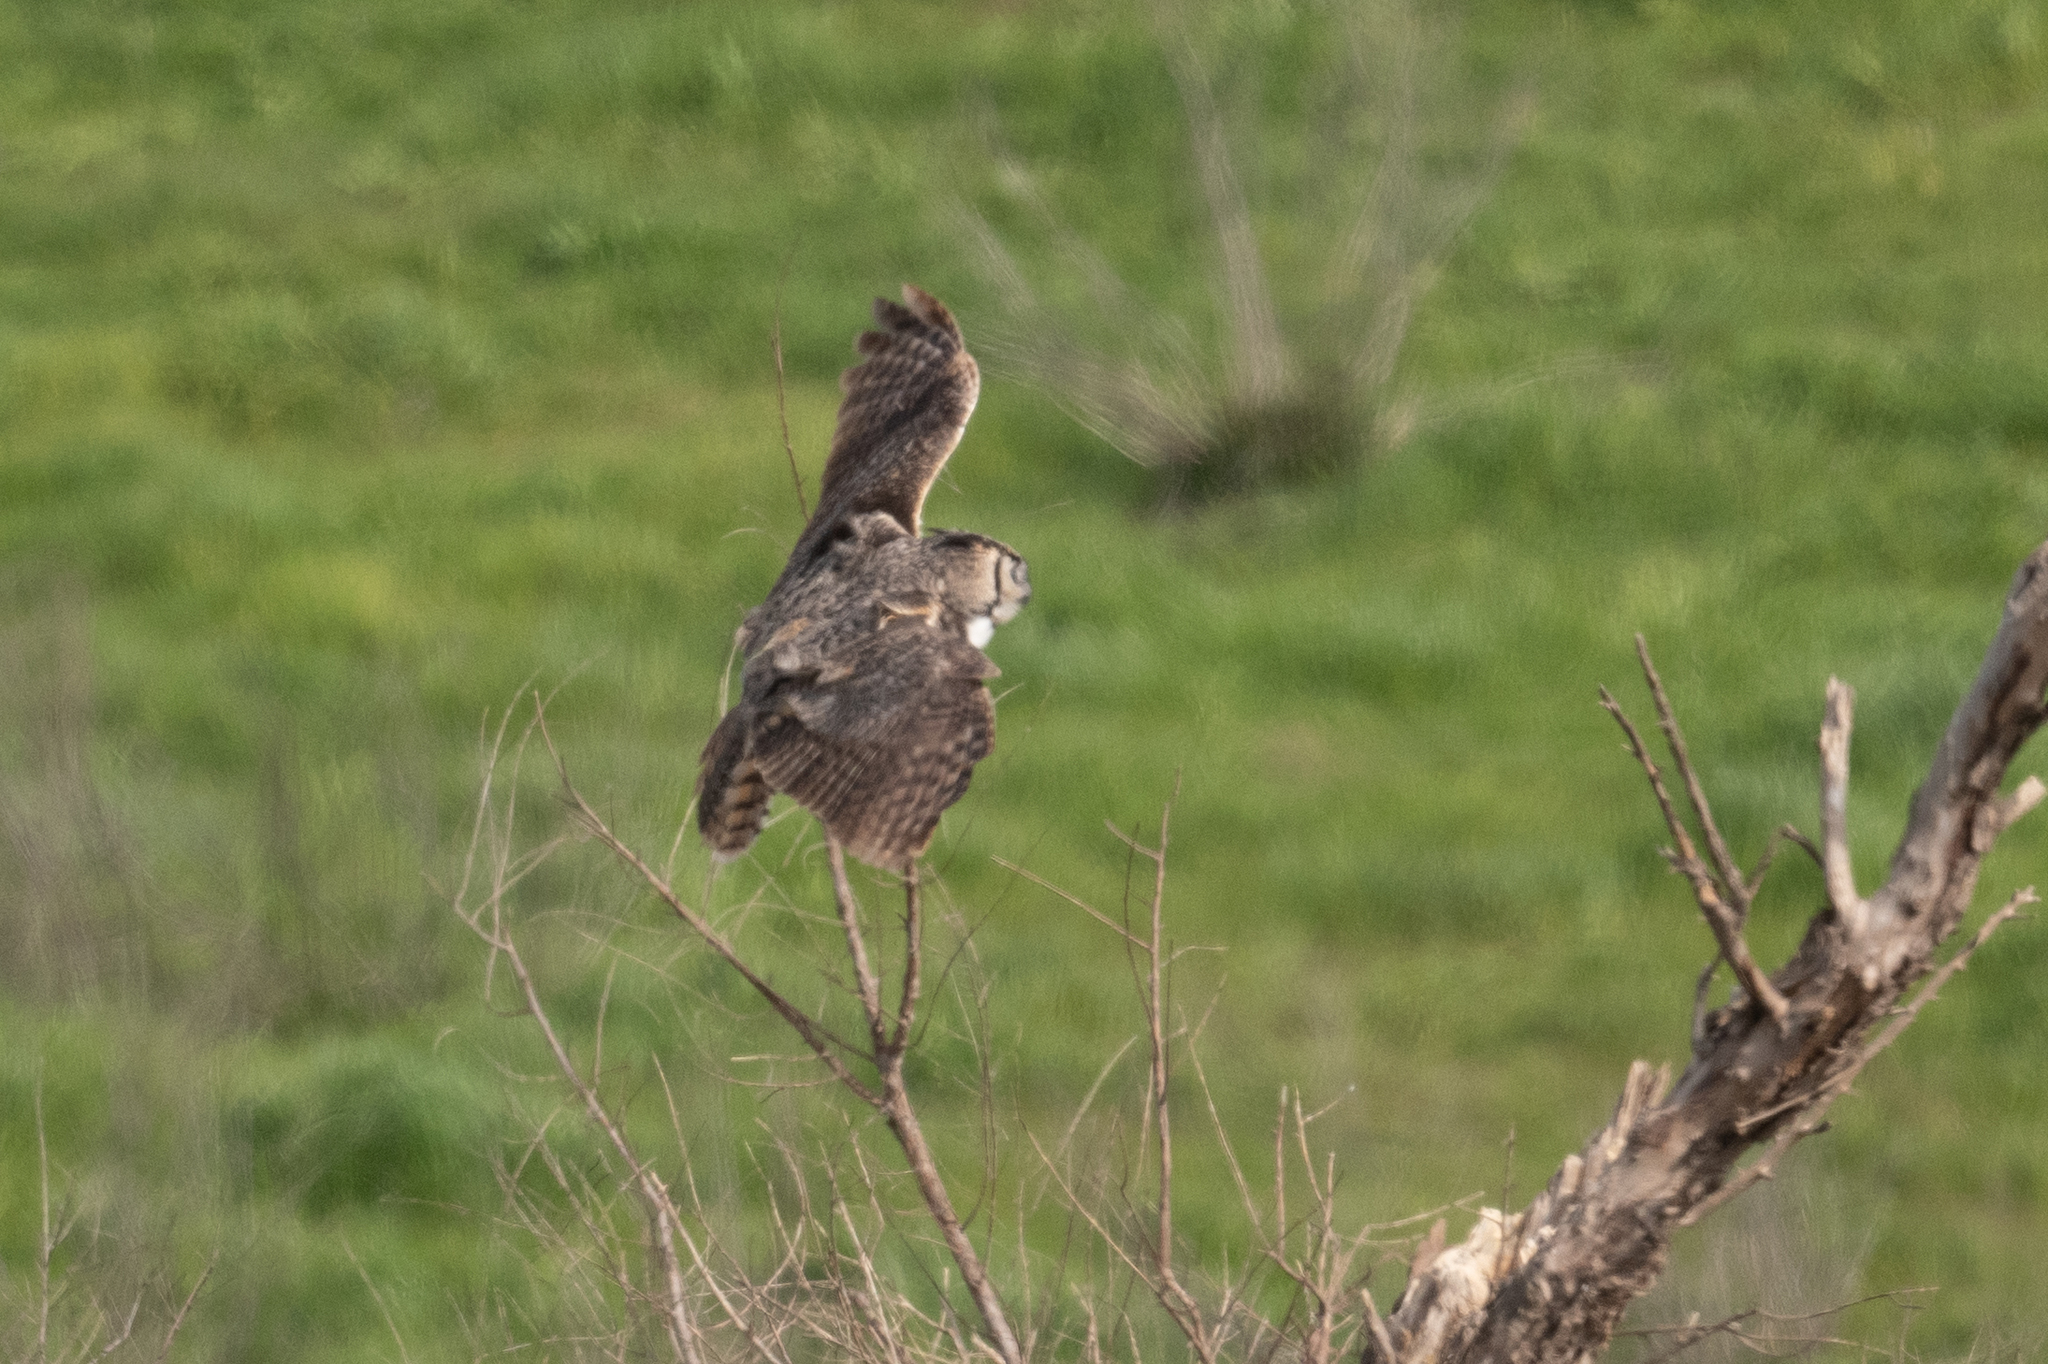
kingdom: Animalia
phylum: Chordata
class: Aves
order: Strigiformes
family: Strigidae
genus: Bubo
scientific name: Bubo virginianus
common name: Great horned owl
